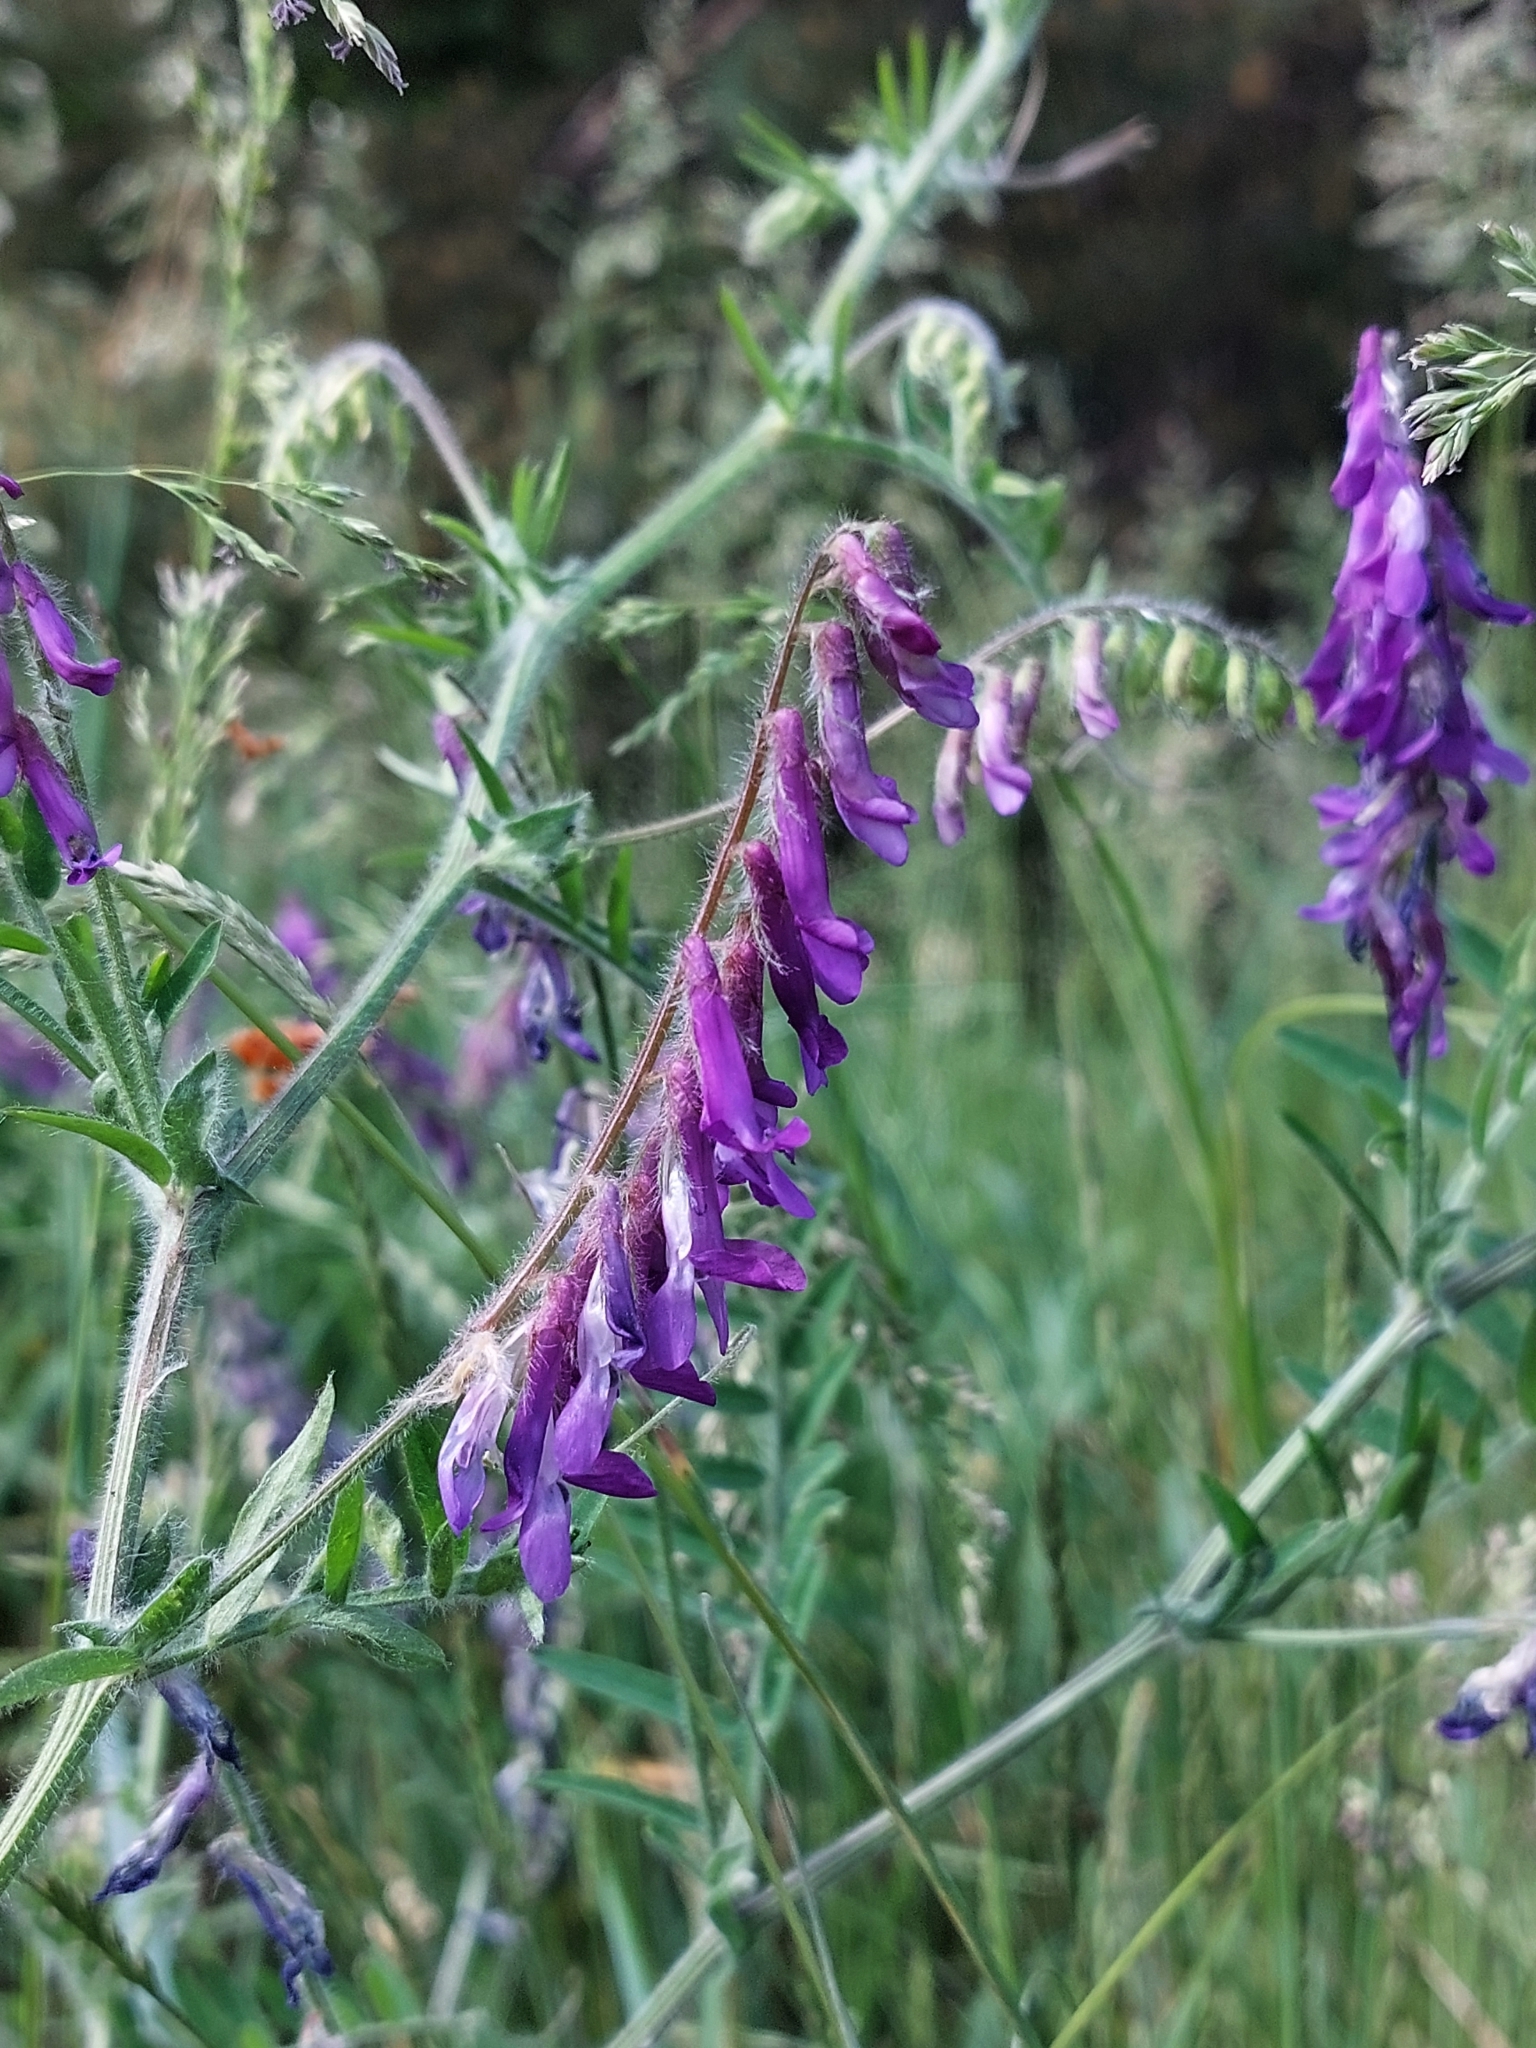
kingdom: Plantae
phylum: Tracheophyta
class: Magnoliopsida
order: Fabales
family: Fabaceae
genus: Vicia
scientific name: Vicia villosa
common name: Fodder vetch
